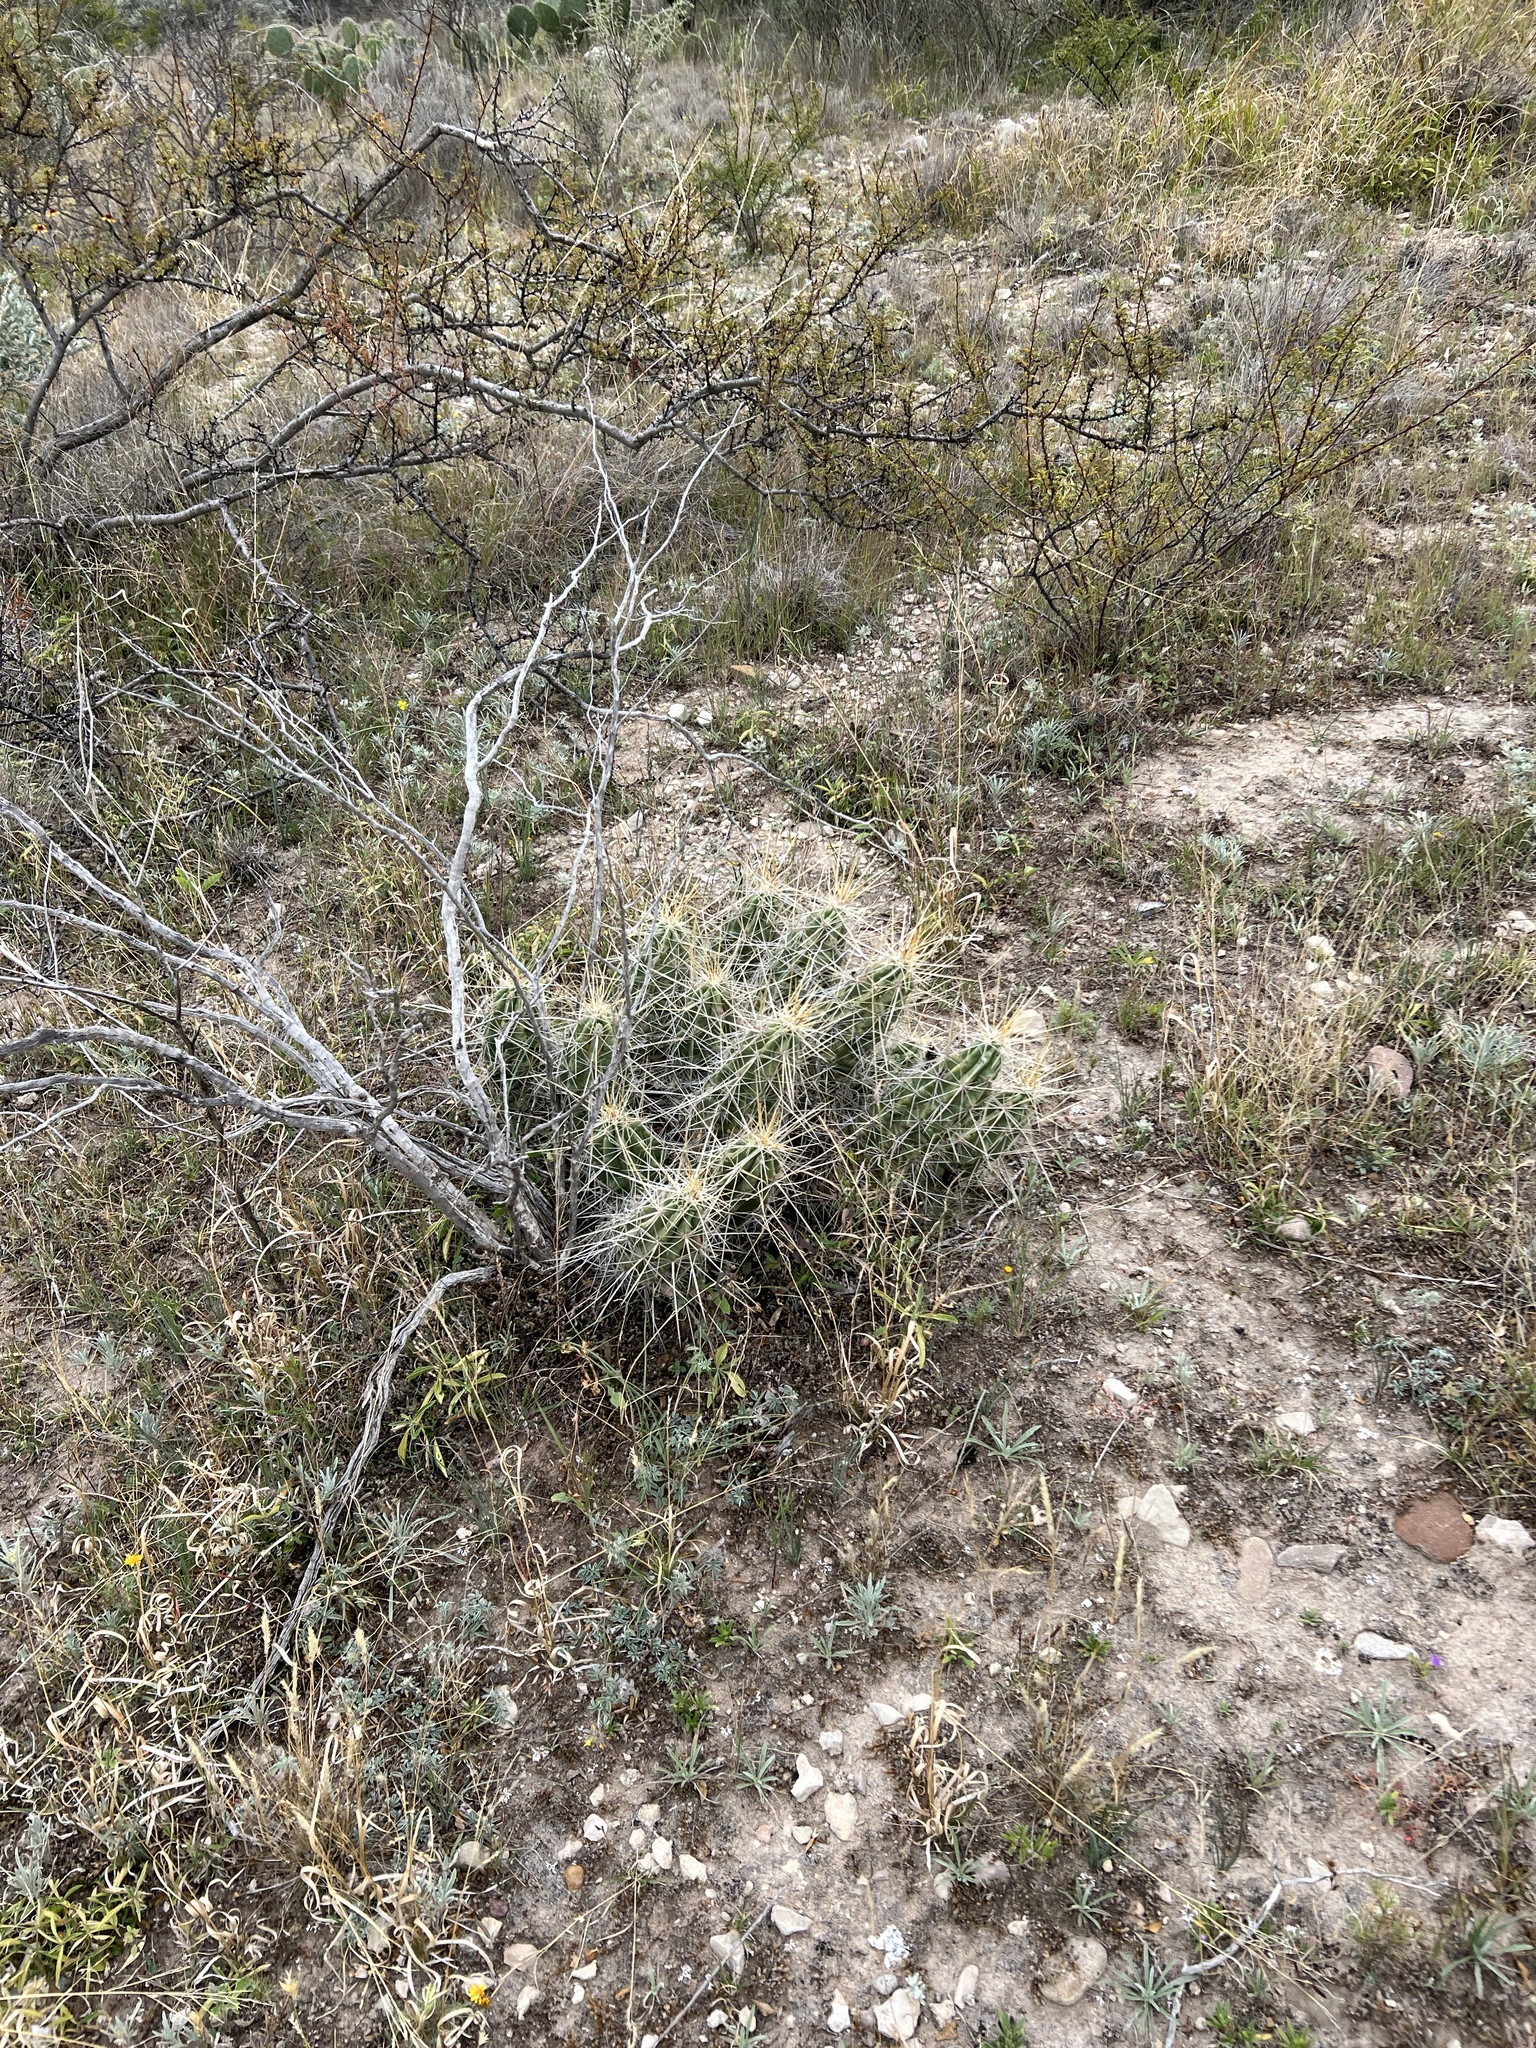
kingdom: Plantae
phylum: Tracheophyta
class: Magnoliopsida
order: Caryophyllales
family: Cactaceae
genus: Echinocereus
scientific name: Echinocereus enneacanthus
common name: Pitaya
